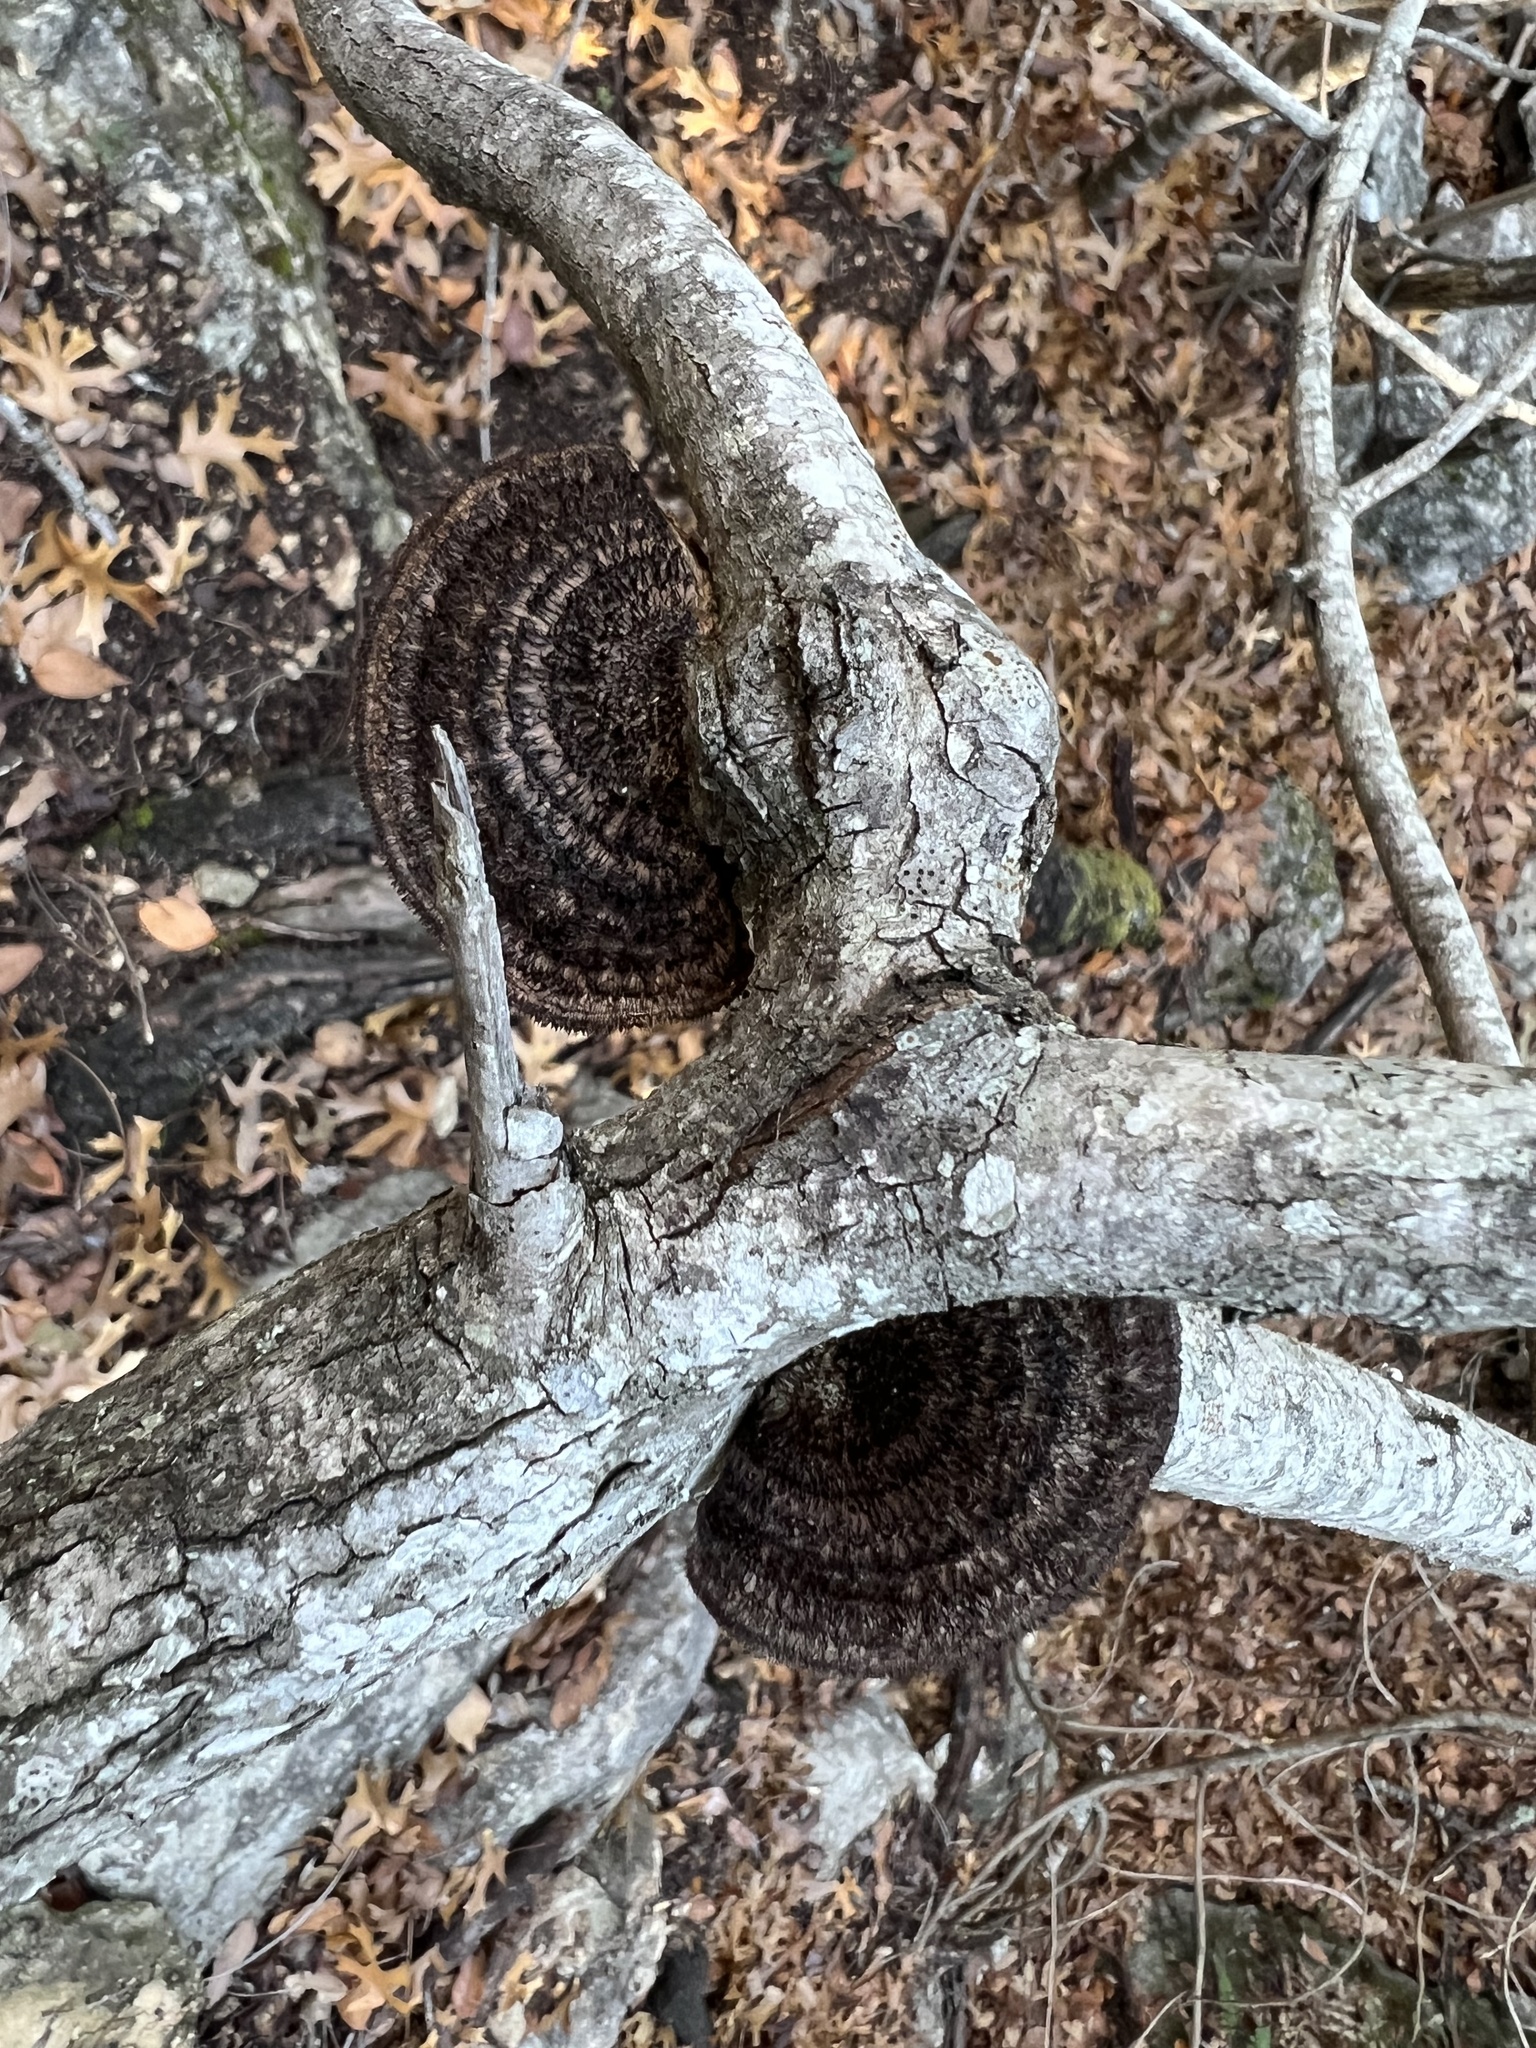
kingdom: Fungi
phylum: Basidiomycota
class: Agaricomycetes
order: Polyporales
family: Cerrenaceae
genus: Cerrena
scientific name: Cerrena hydnoides
